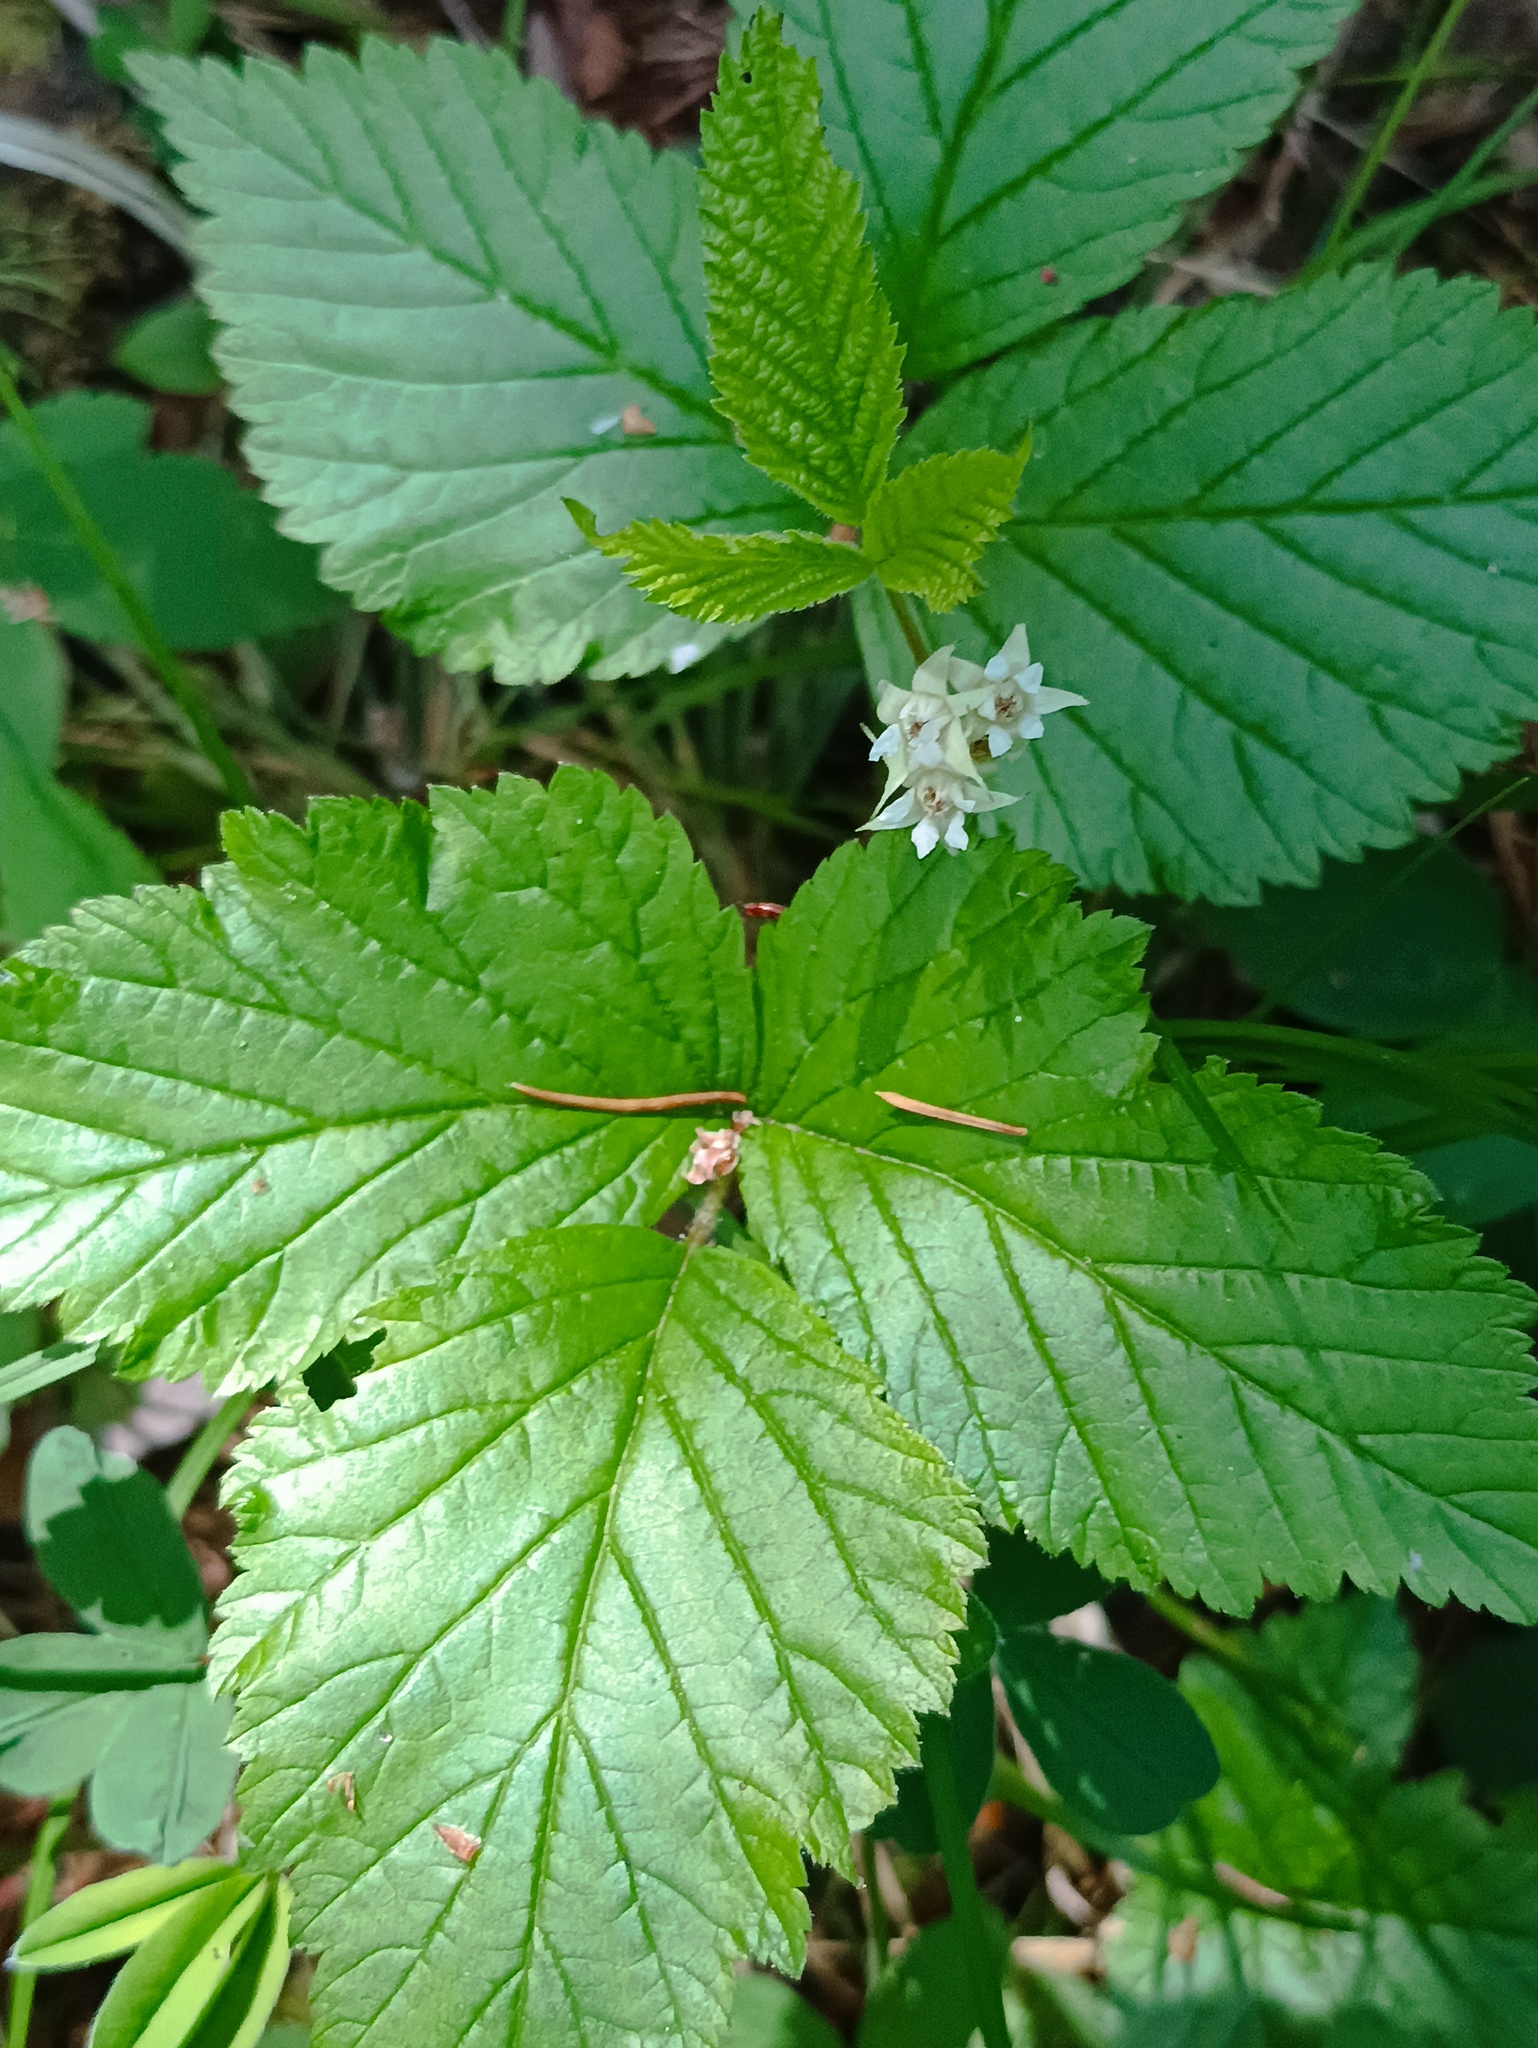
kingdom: Plantae
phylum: Tracheophyta
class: Magnoliopsida
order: Rosales
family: Rosaceae
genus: Rubus
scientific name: Rubus saxatilis
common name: Stone bramble
